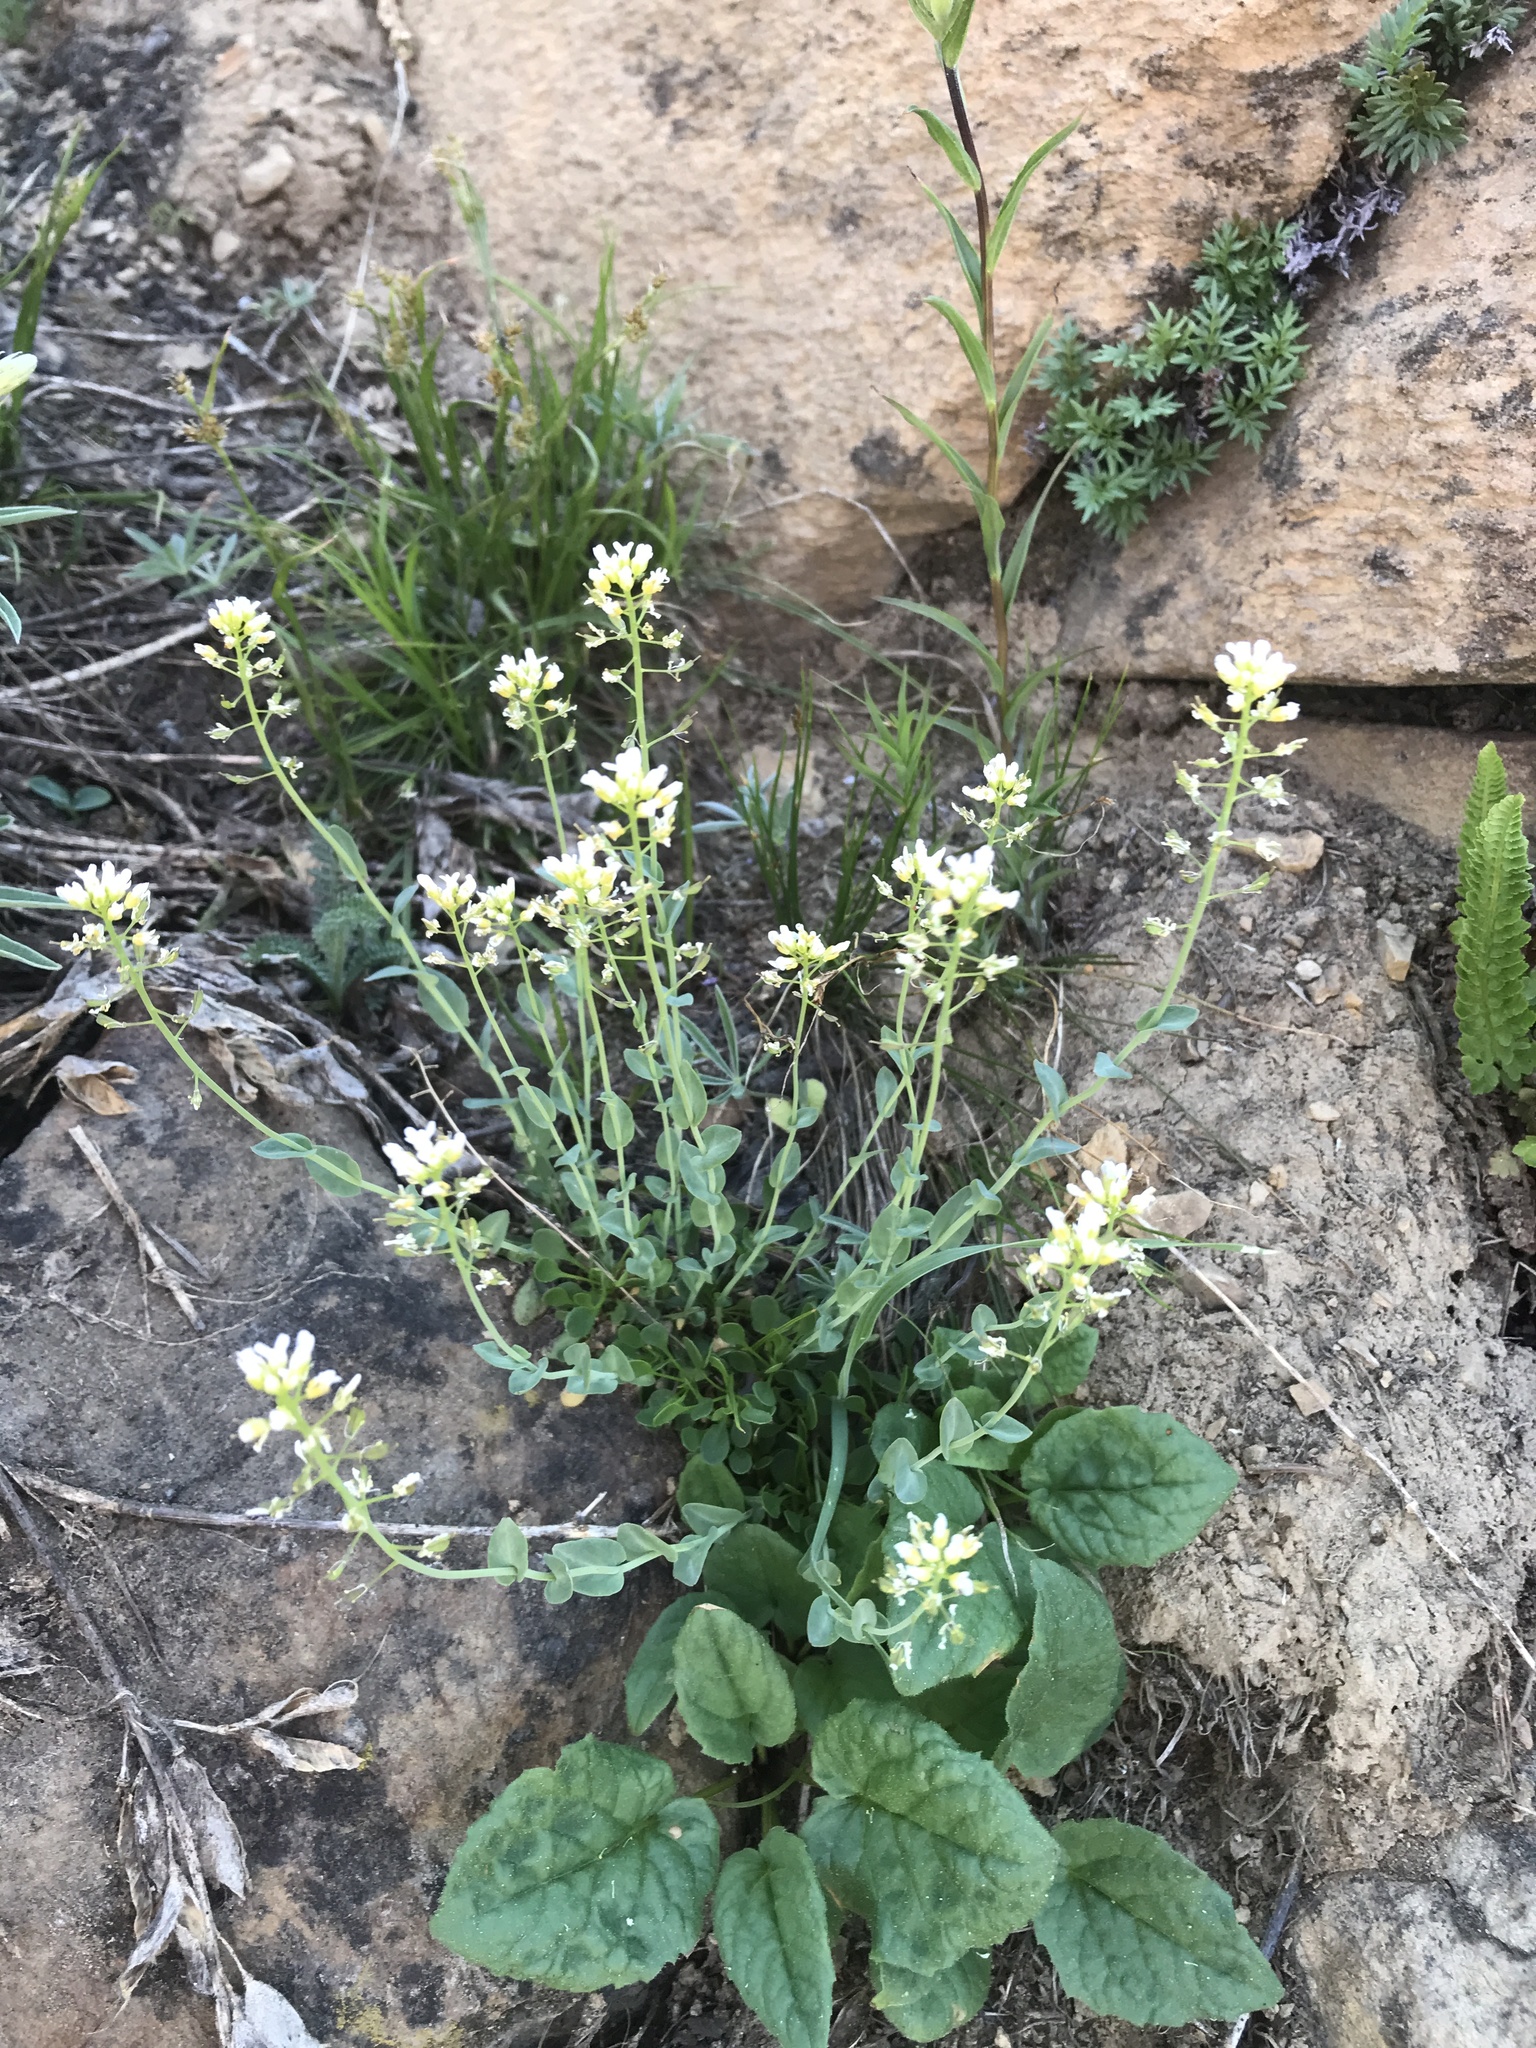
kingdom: Plantae
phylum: Tracheophyta
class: Magnoliopsida
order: Brassicales
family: Brassicaceae
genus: Noccaea
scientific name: Noccaea fendleri
